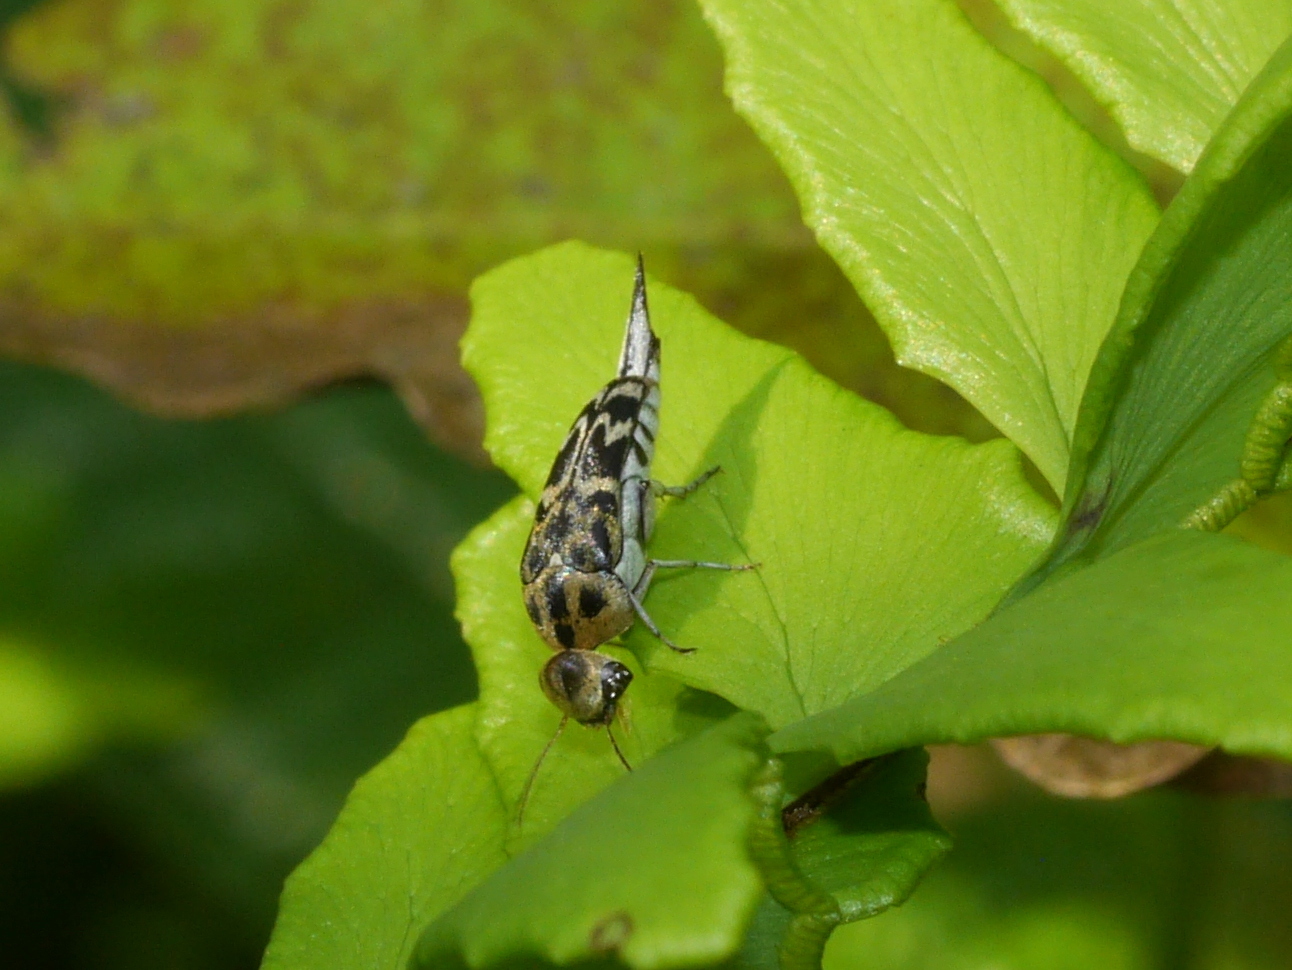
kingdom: Animalia
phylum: Arthropoda
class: Insecta
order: Coleoptera
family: Mordellidae
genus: Glipa
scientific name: Glipa
